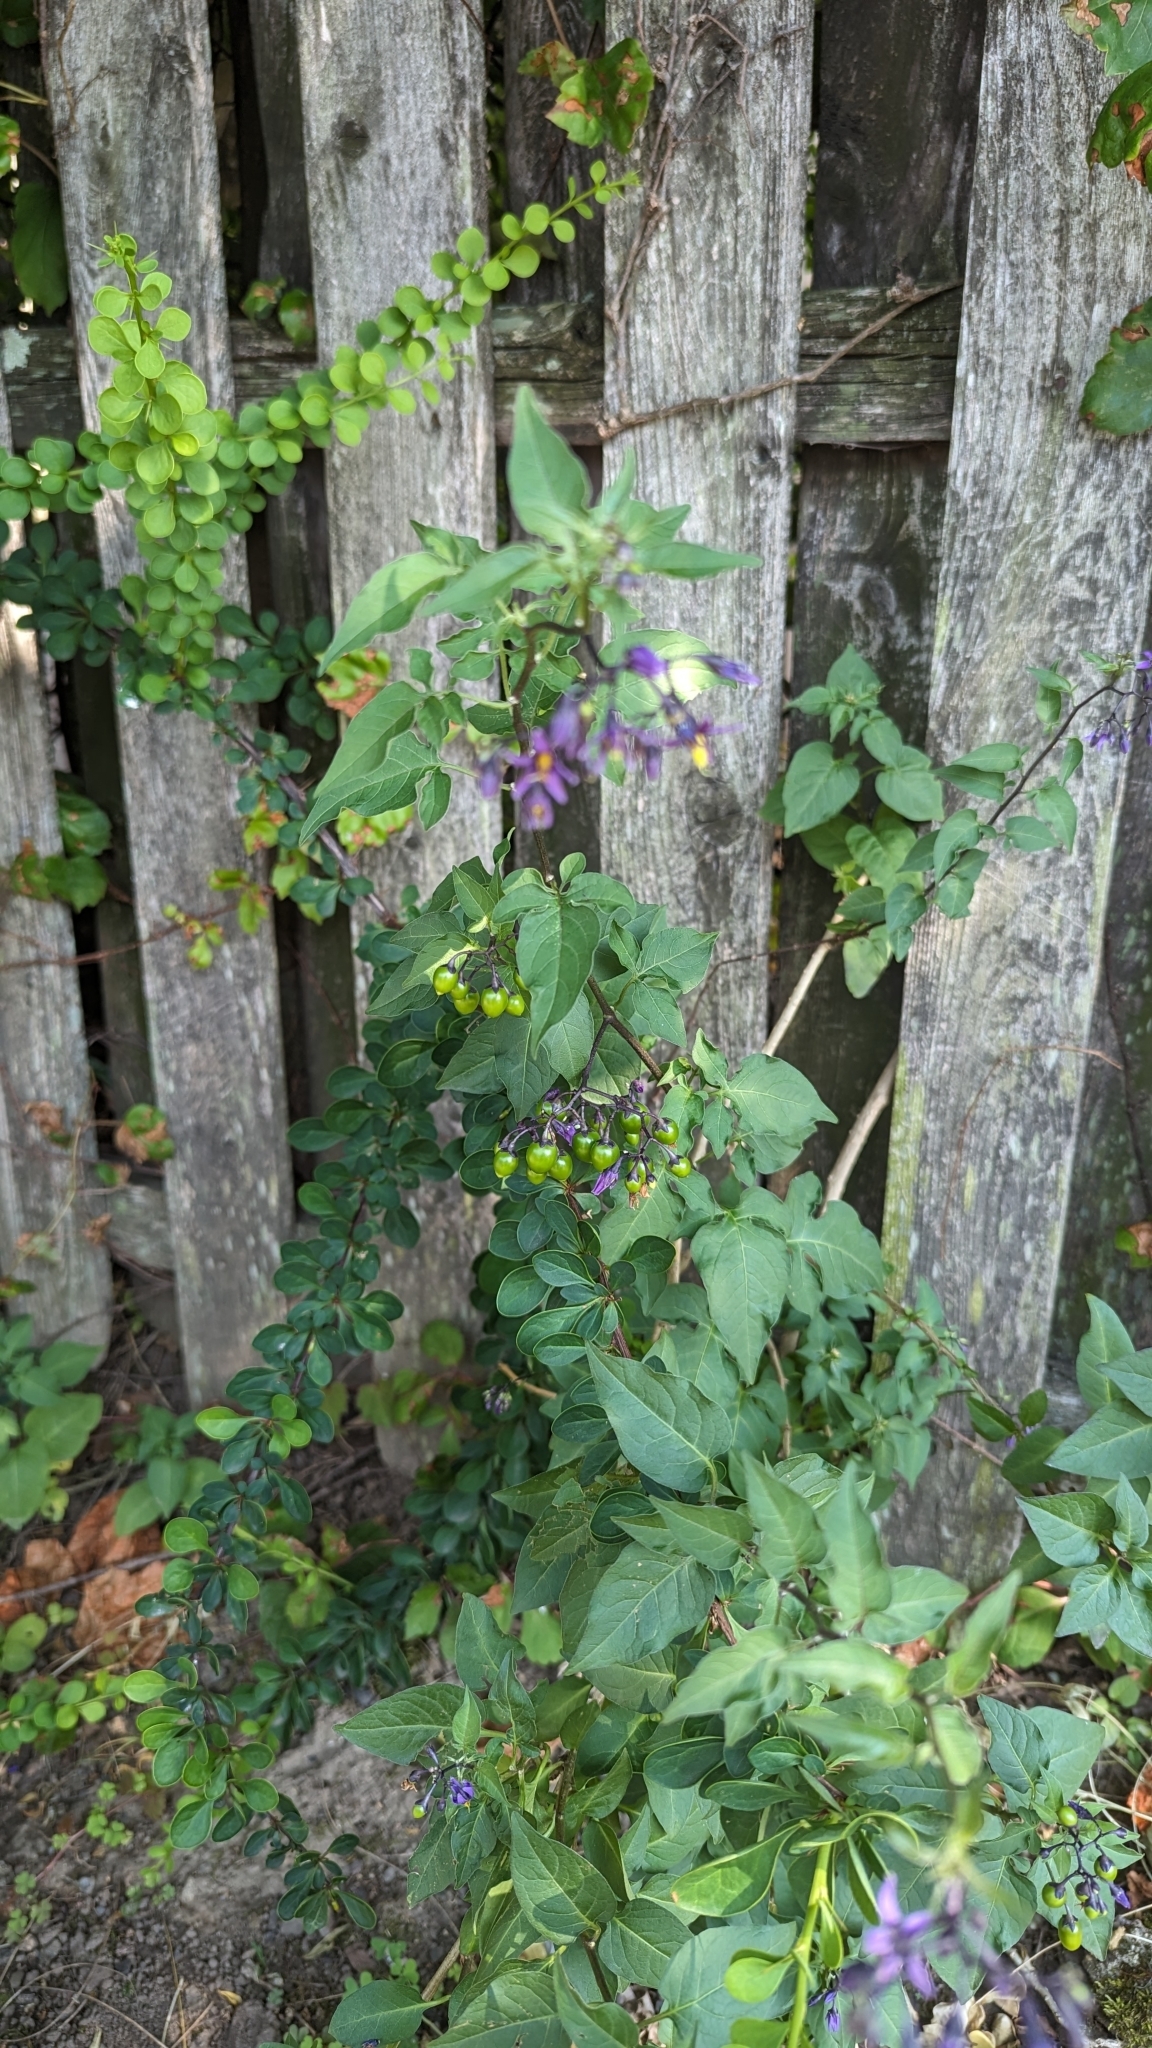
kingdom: Plantae
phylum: Tracheophyta
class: Magnoliopsida
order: Solanales
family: Solanaceae
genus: Solanum
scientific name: Solanum dulcamara
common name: Climbing nightshade
